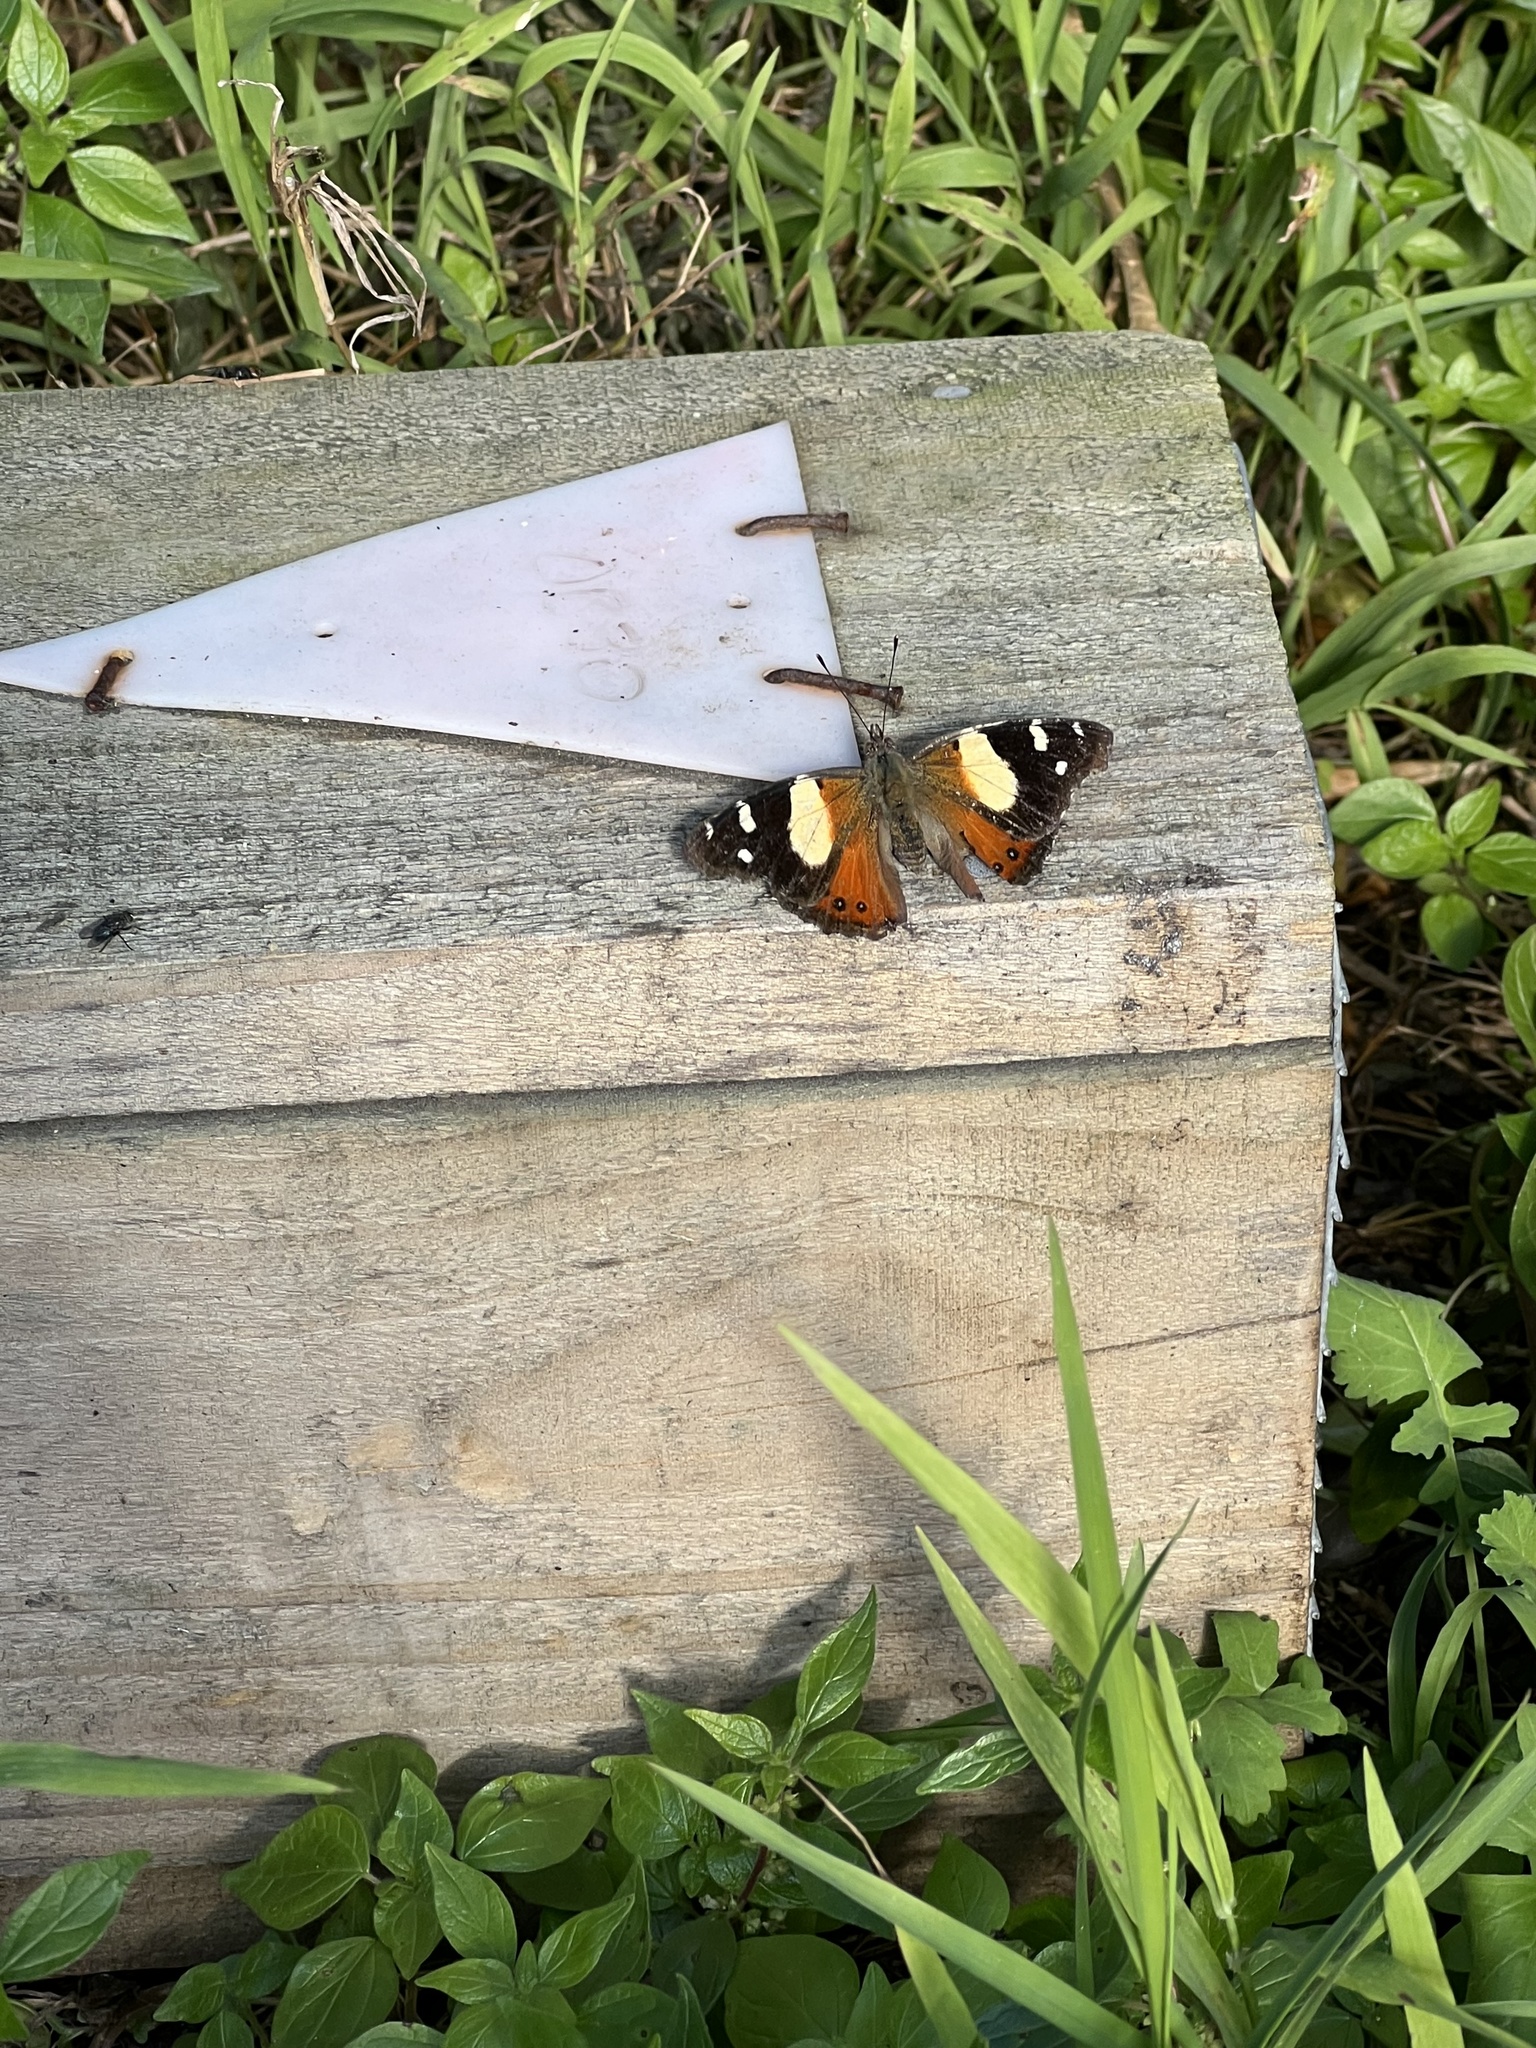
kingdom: Animalia
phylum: Arthropoda
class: Insecta
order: Lepidoptera
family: Nymphalidae
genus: Vanessa
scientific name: Vanessa itea
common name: Yellow admiral
